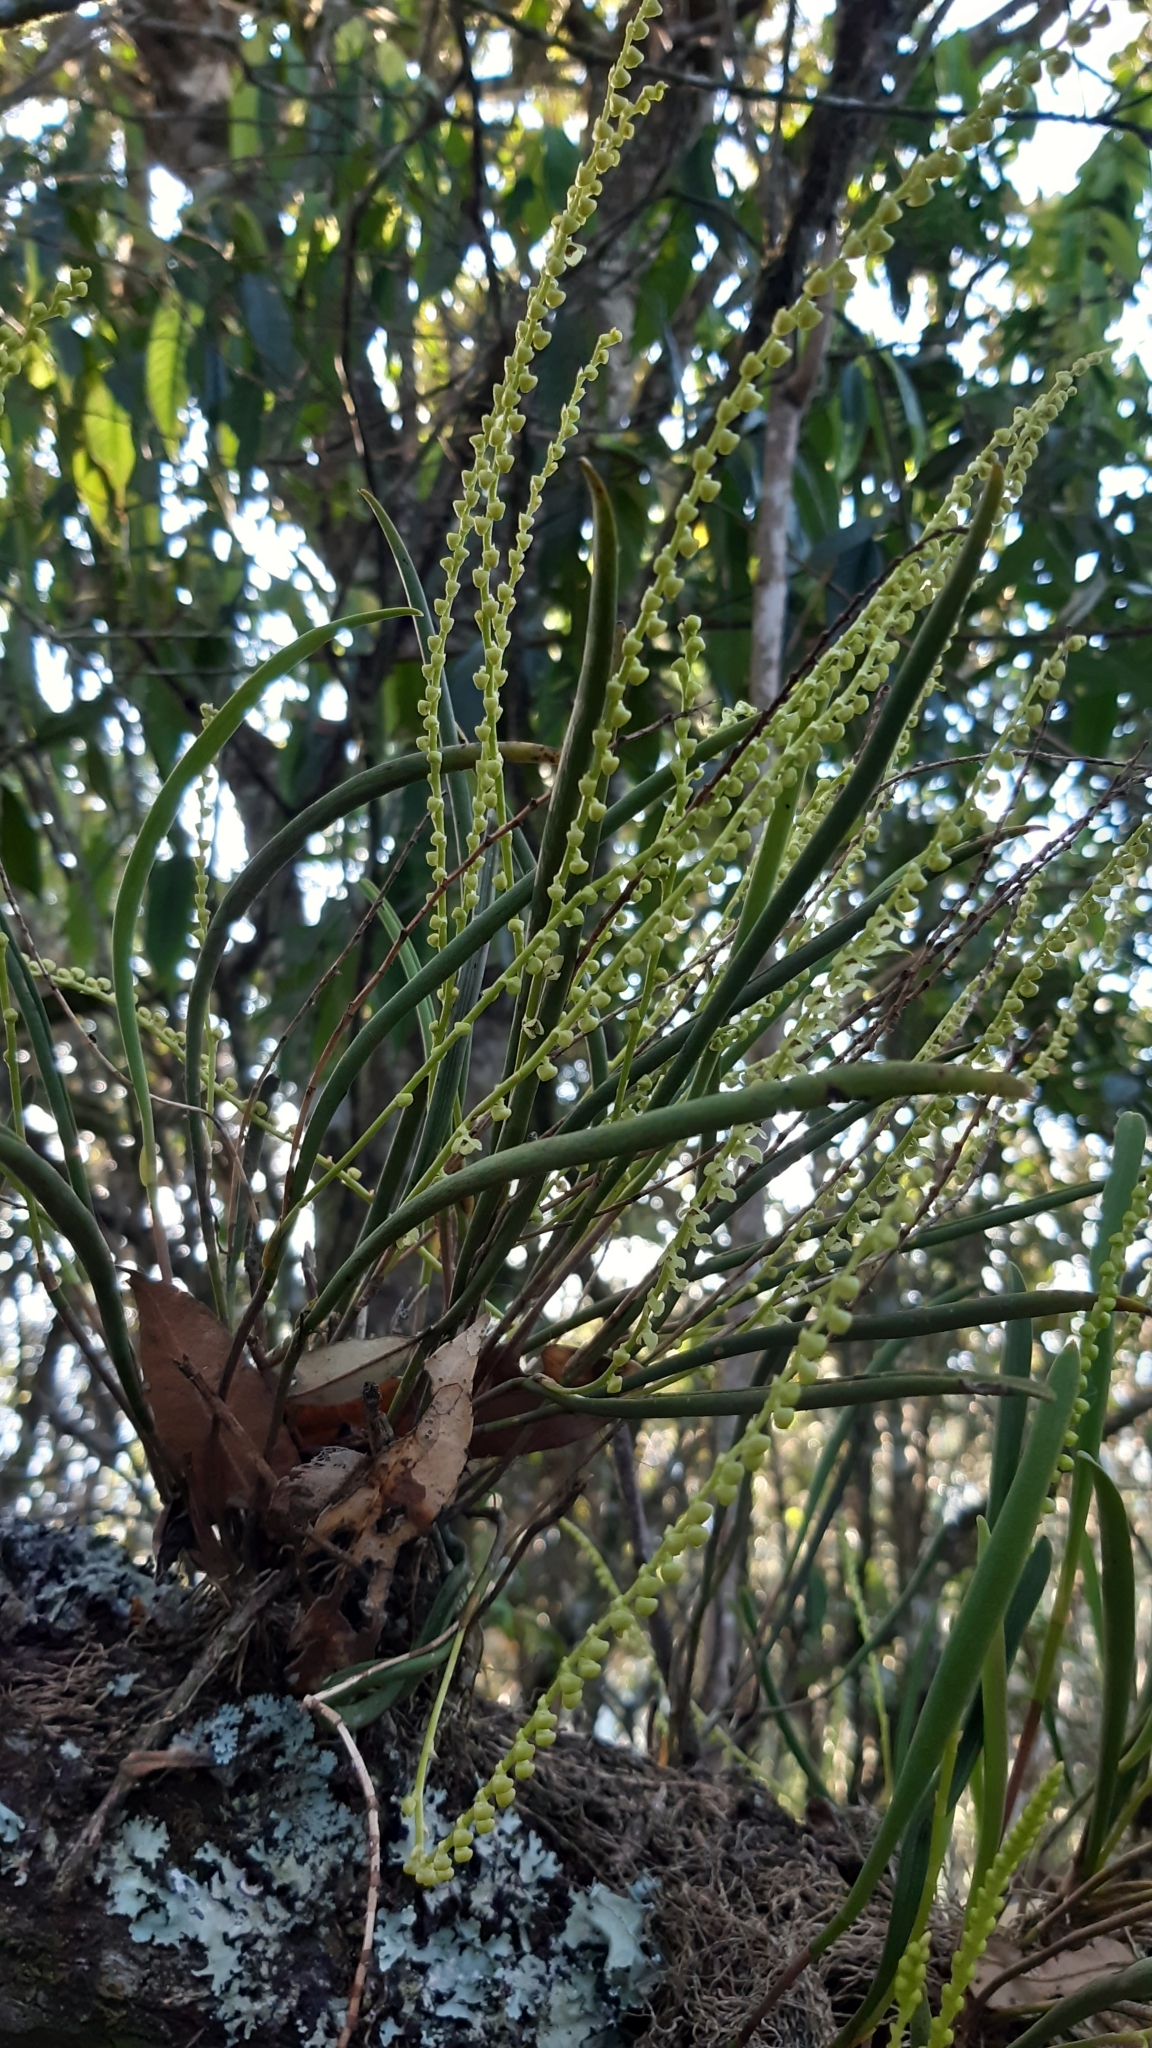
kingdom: Plantae
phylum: Tracheophyta
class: Liliopsida
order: Asparagales
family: Orchidaceae
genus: Stelis
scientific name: Stelis angustifolia
